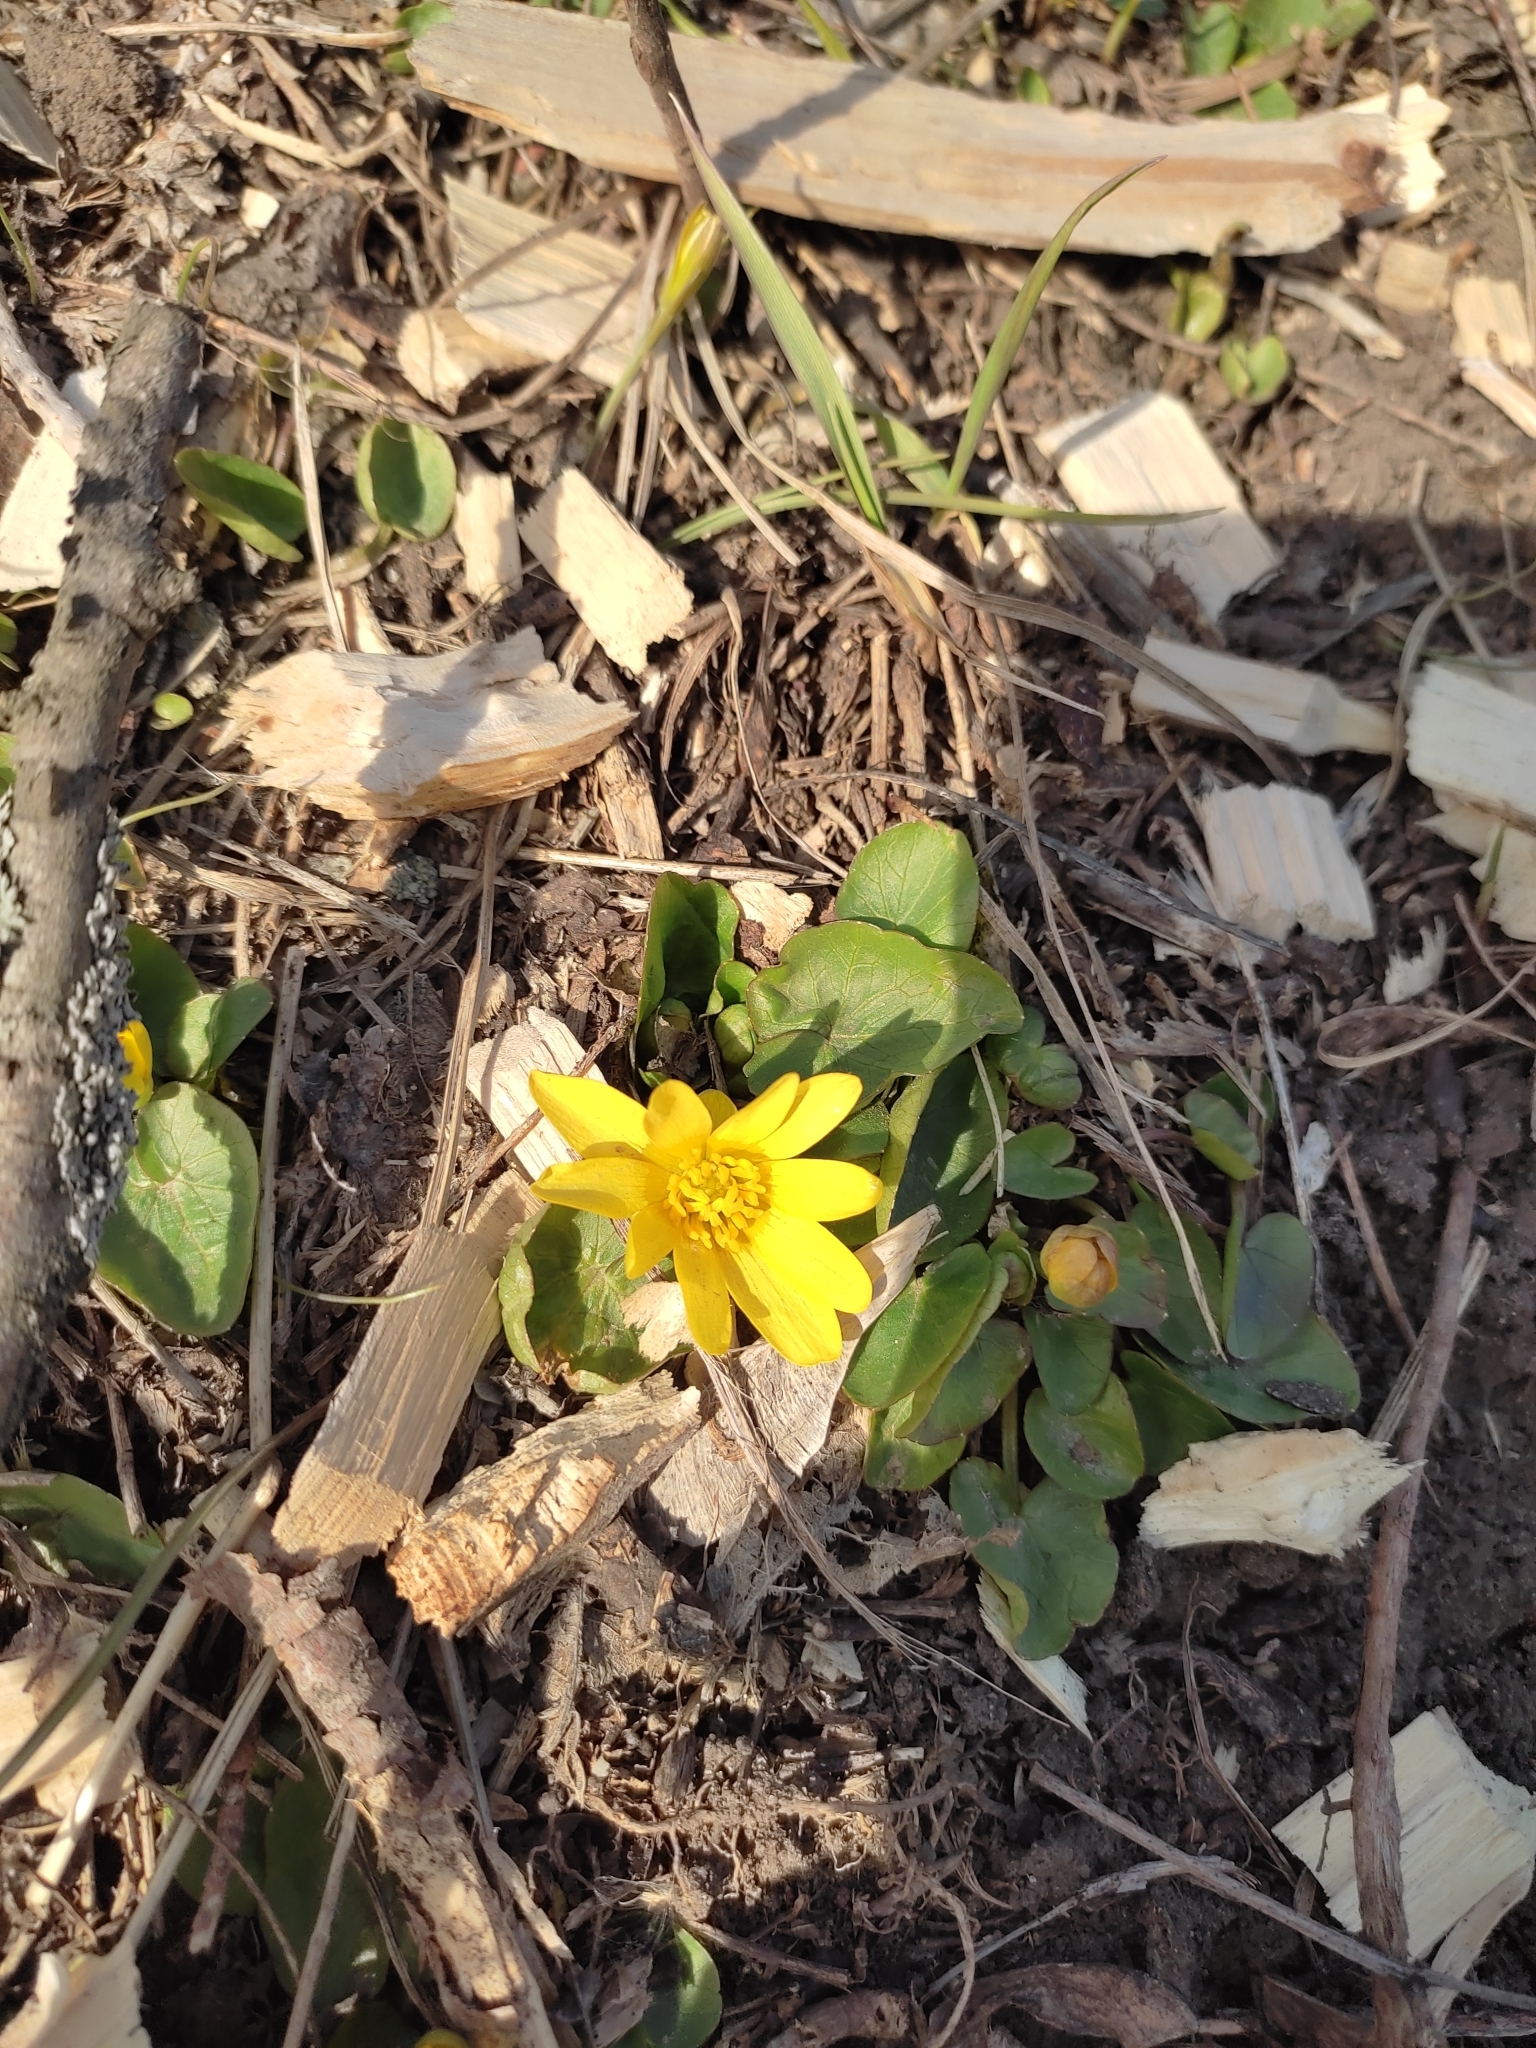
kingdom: Plantae
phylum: Tracheophyta
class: Magnoliopsida
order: Ranunculales
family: Ranunculaceae
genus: Ficaria
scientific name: Ficaria verna
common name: Lesser celandine
